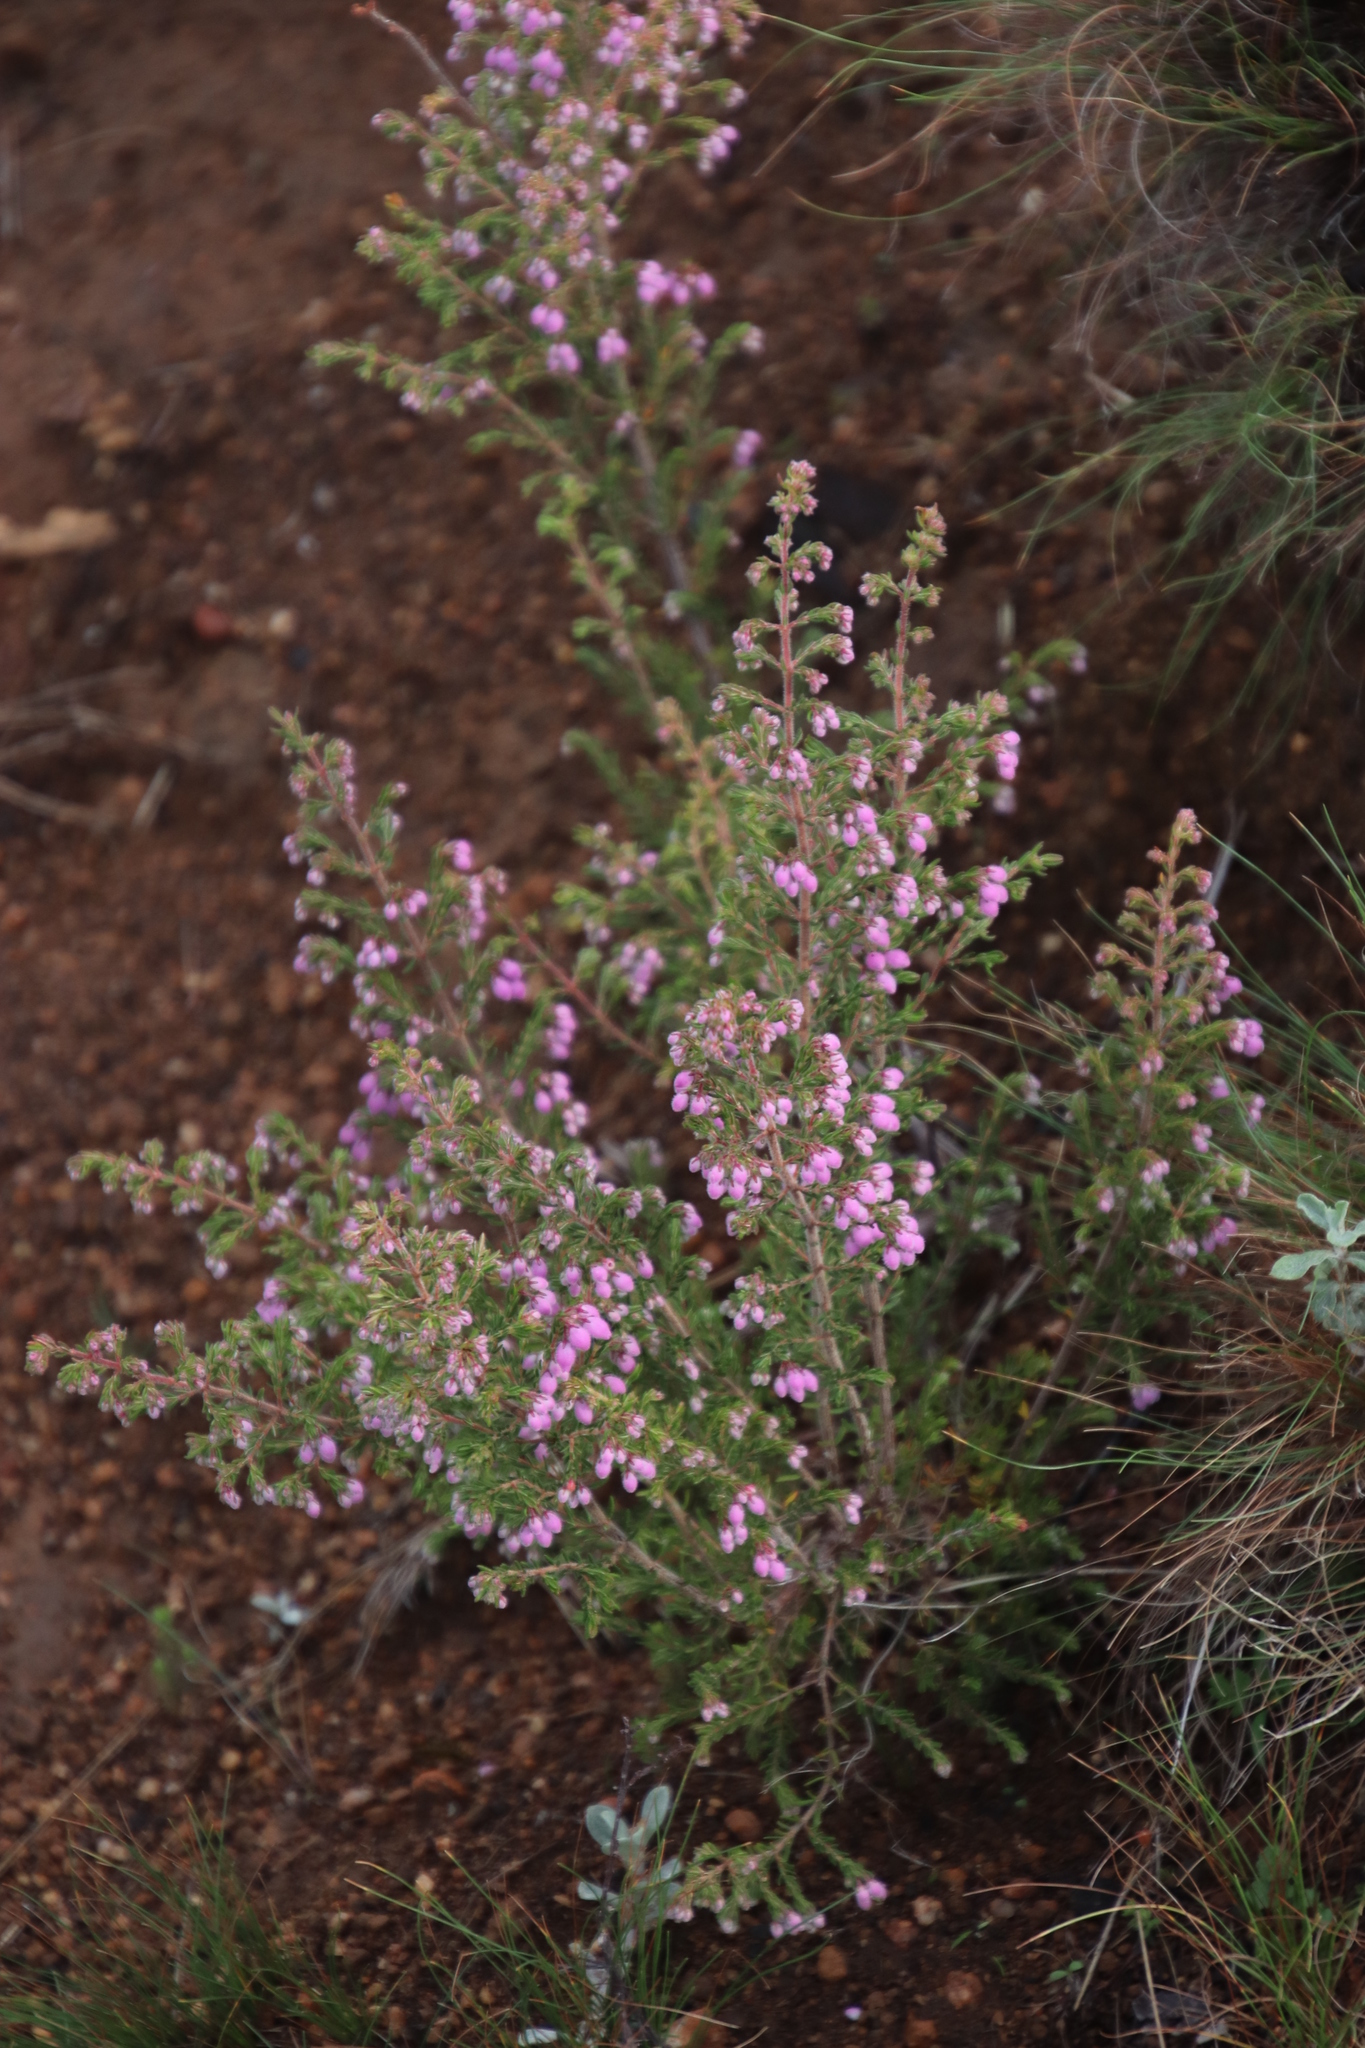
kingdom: Plantae
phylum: Tracheophyta
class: Magnoliopsida
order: Ericales
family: Ericaceae
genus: Erica
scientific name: Erica hirtiflora
